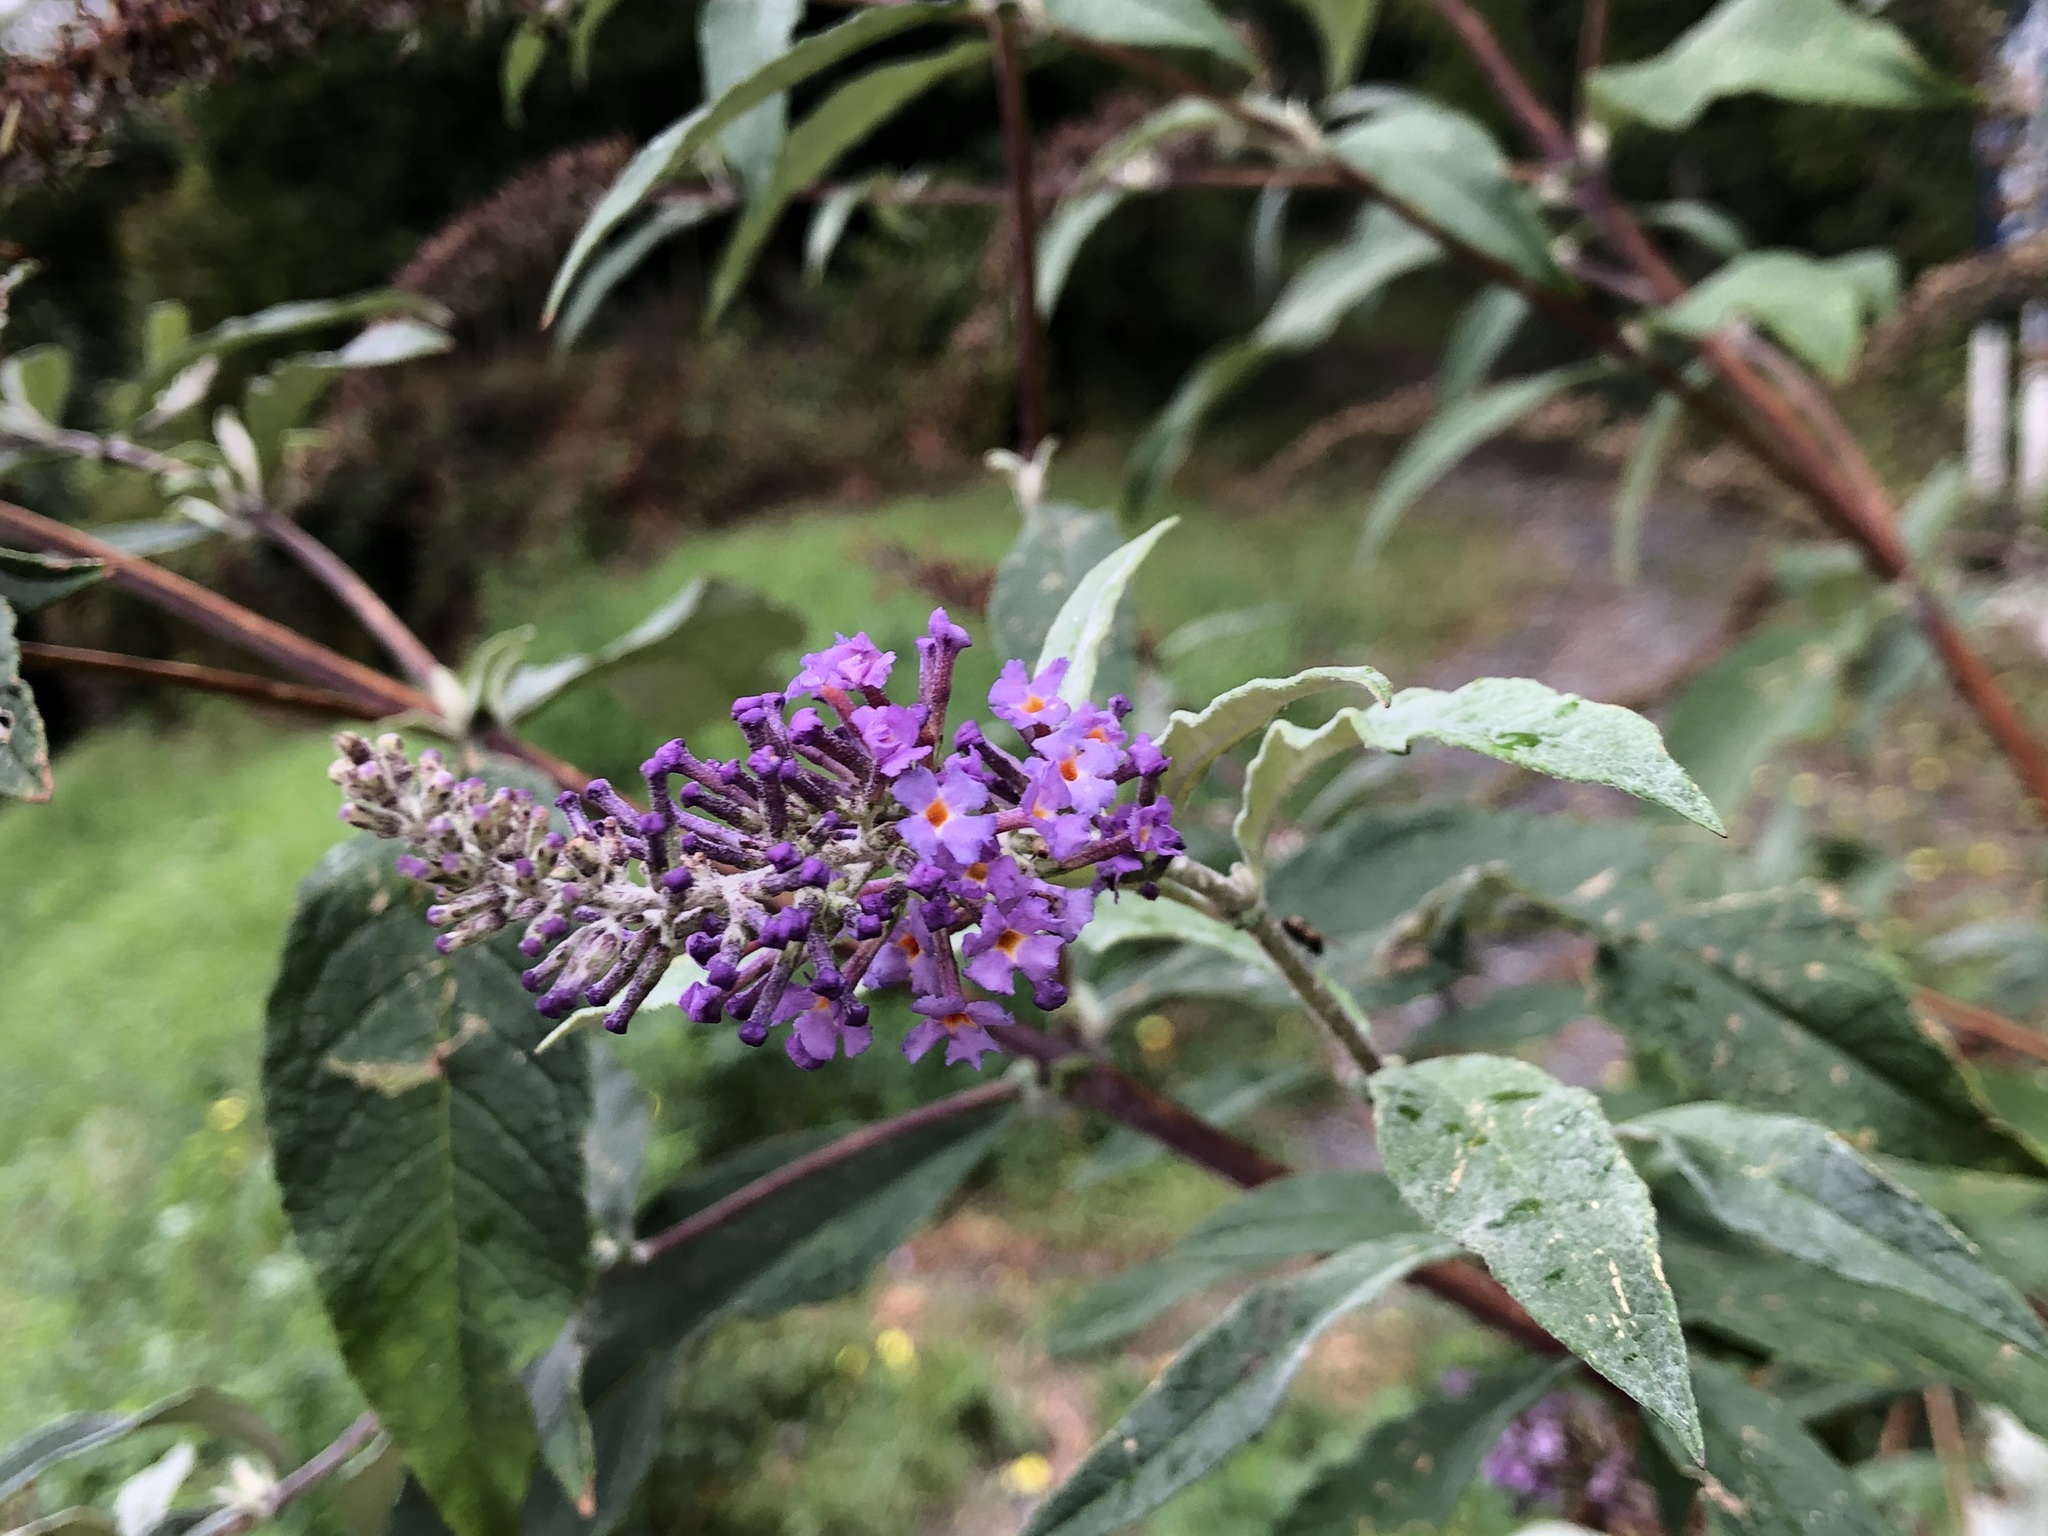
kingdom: Plantae
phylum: Tracheophyta
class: Magnoliopsida
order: Lamiales
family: Scrophulariaceae
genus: Buddleja
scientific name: Buddleja davidii
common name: Butterfly-bush
